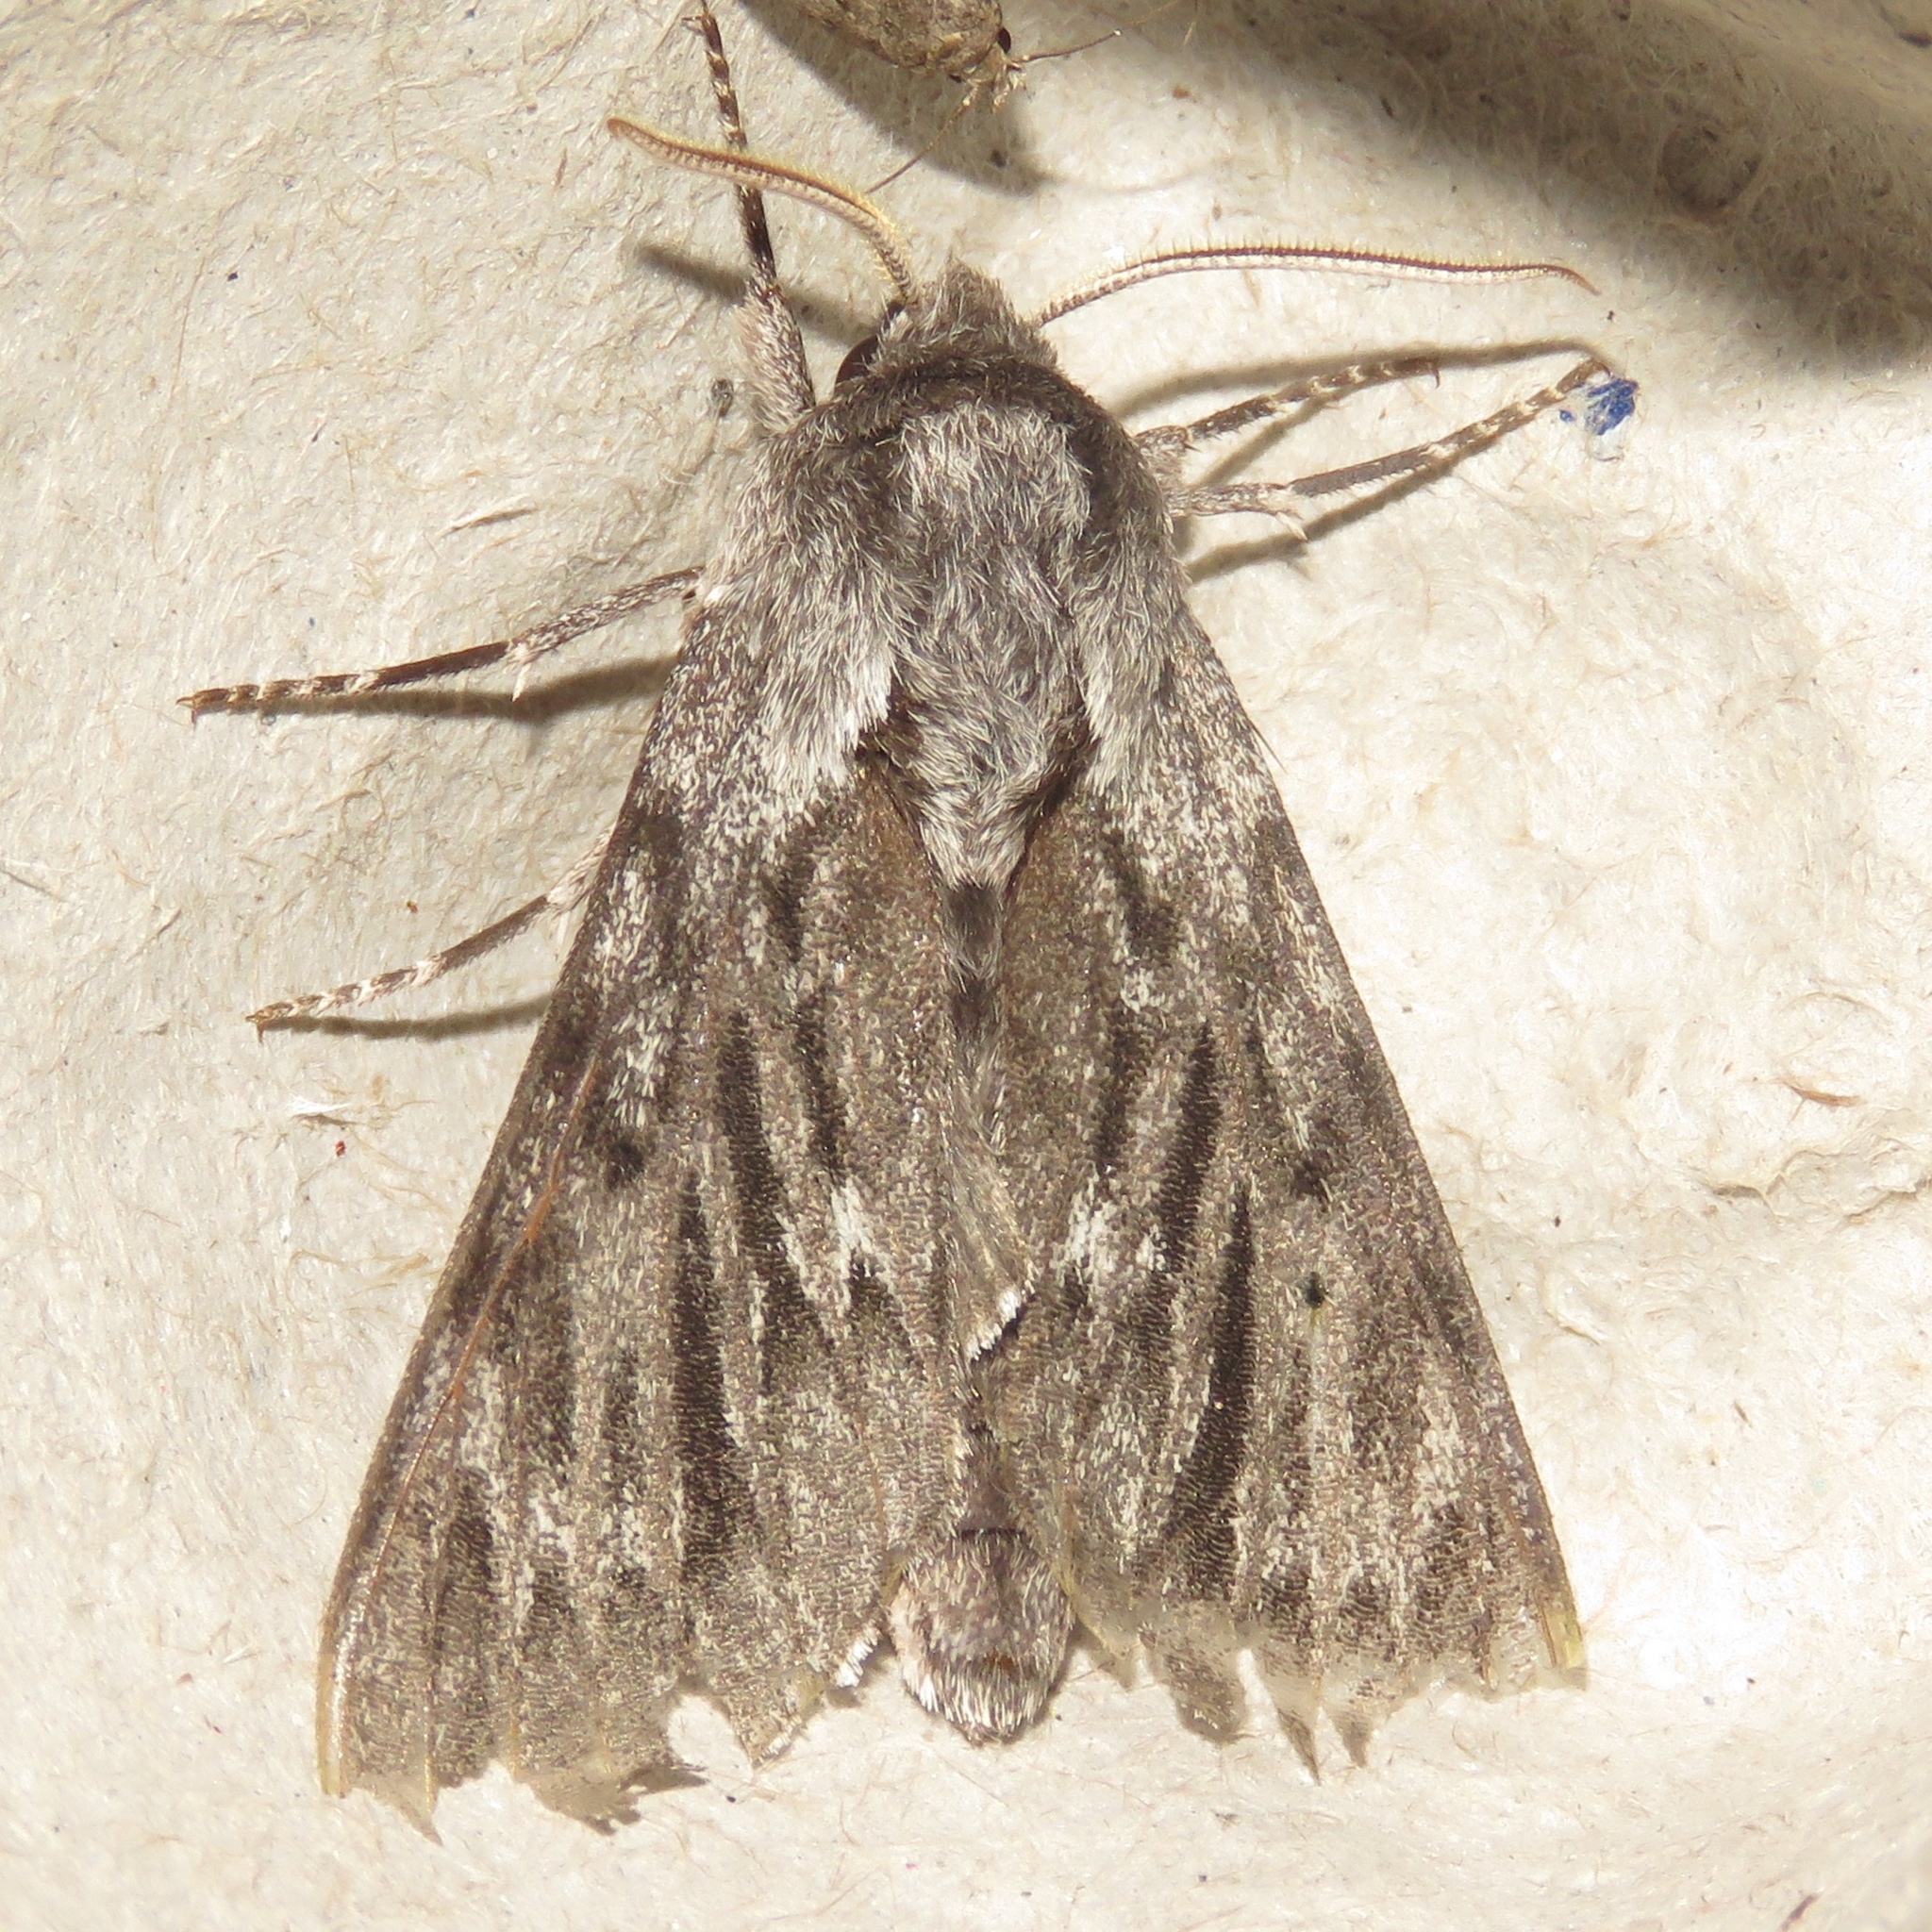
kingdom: Animalia
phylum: Arthropoda
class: Insecta
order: Lepidoptera
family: Sphingidae
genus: Lapara
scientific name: Lapara bombycoides
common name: Northern pine sphinx
